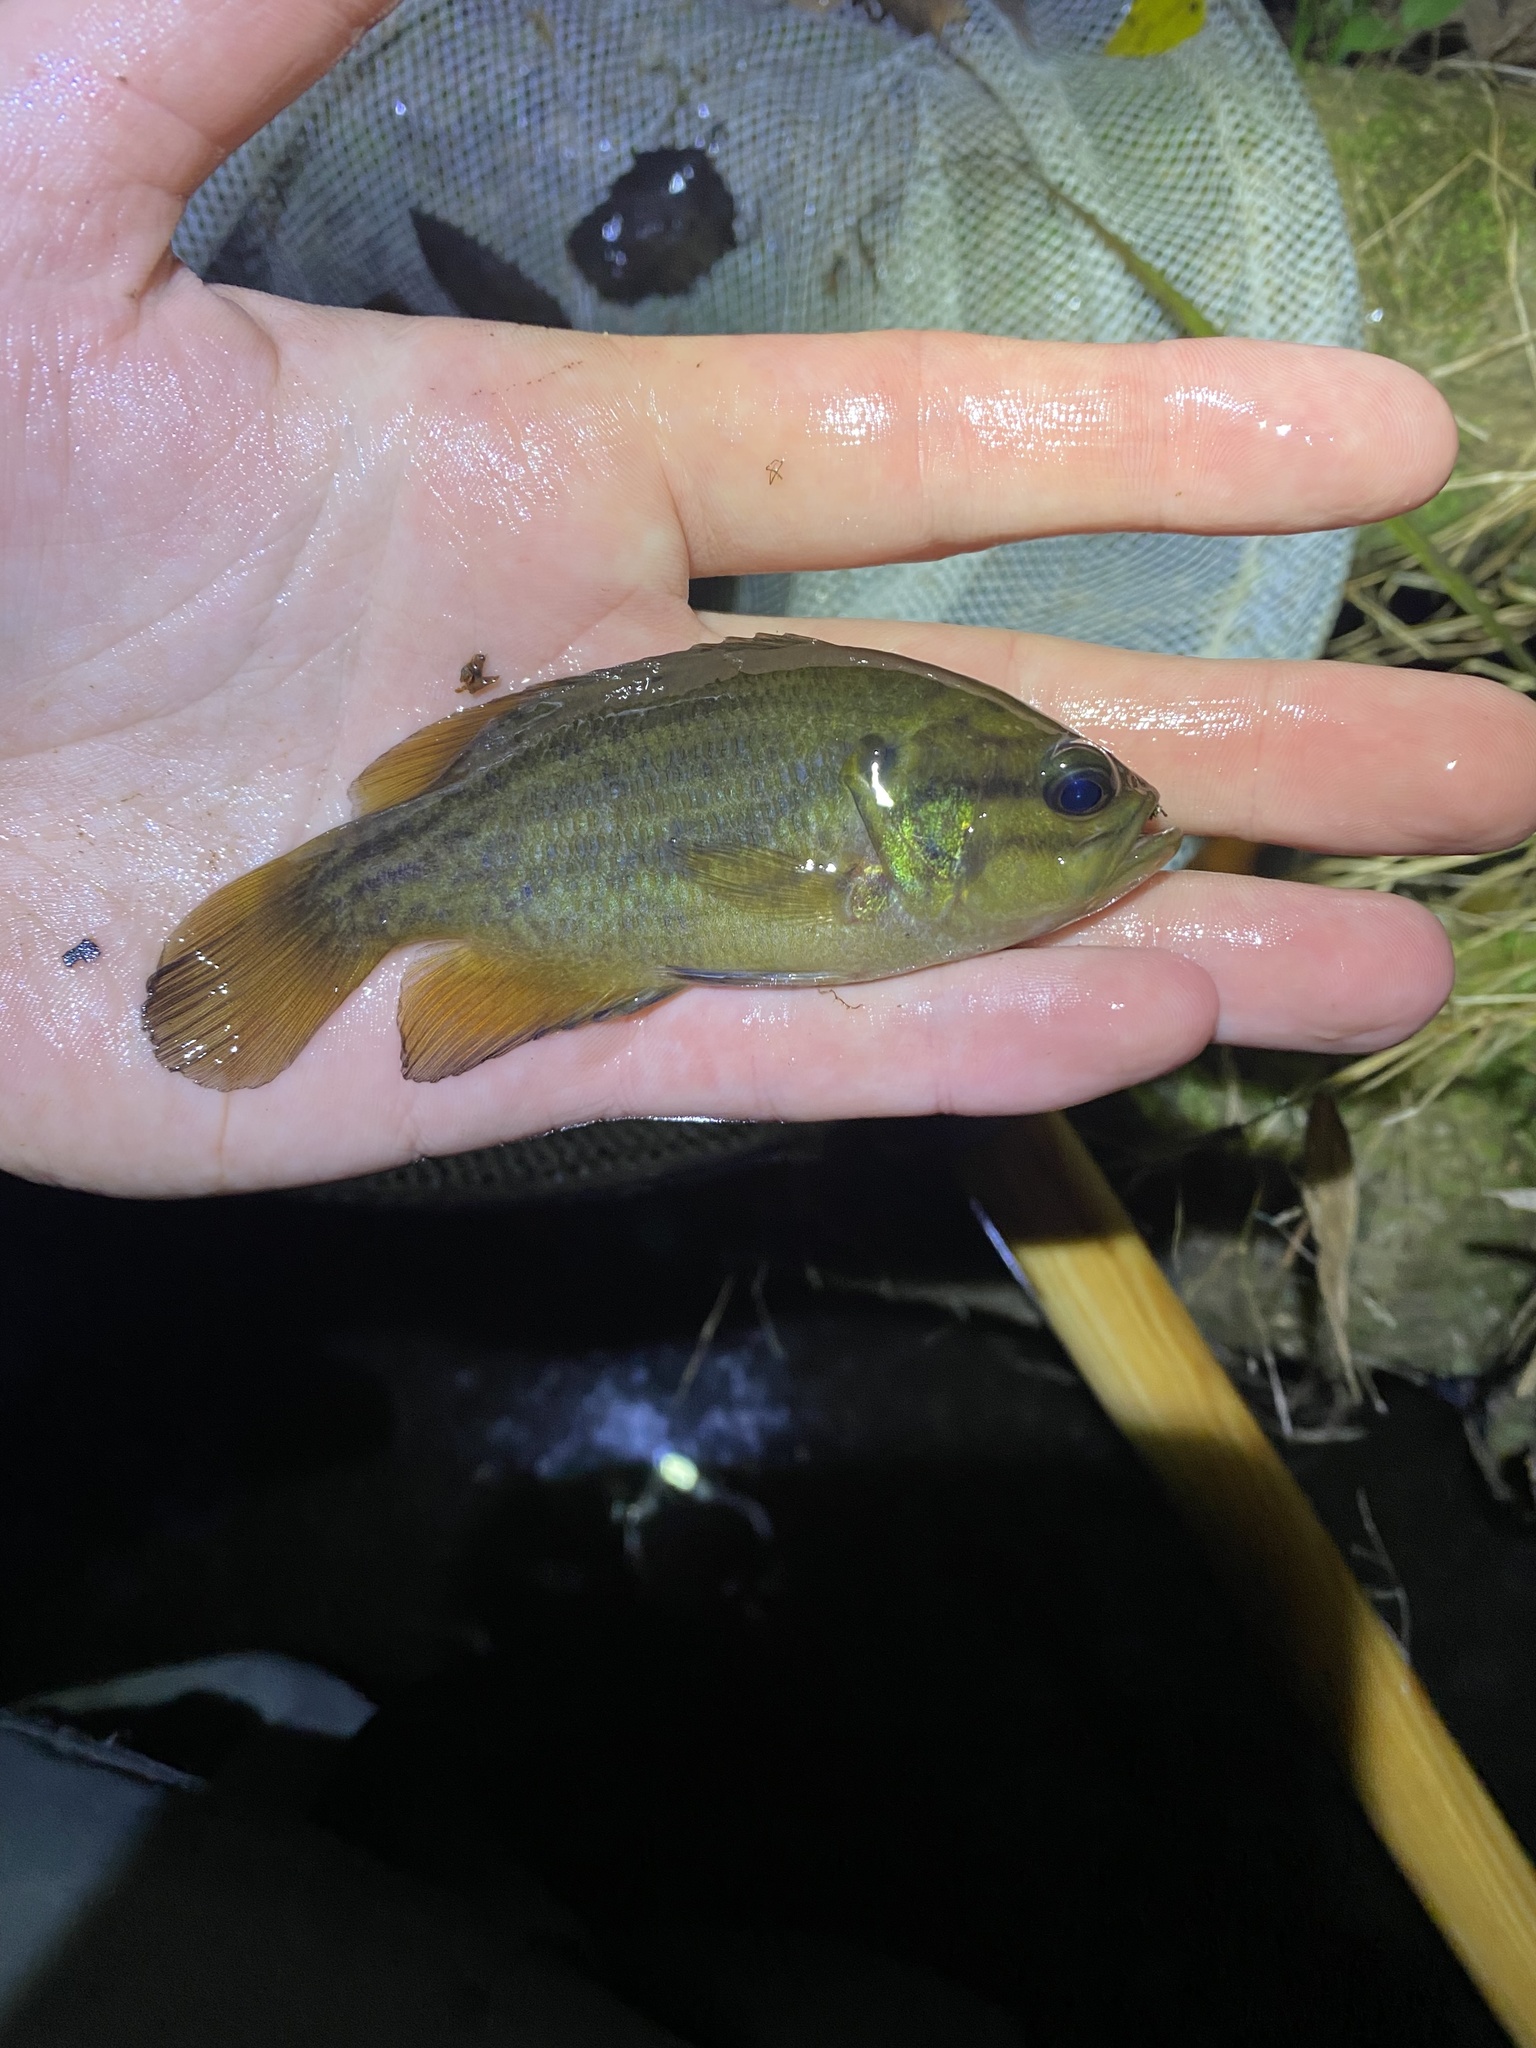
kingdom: Animalia
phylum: Chordata
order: Perciformes
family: Centrarchidae
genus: Acantharchus
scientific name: Acantharchus pomotis
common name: Mud sunfish
